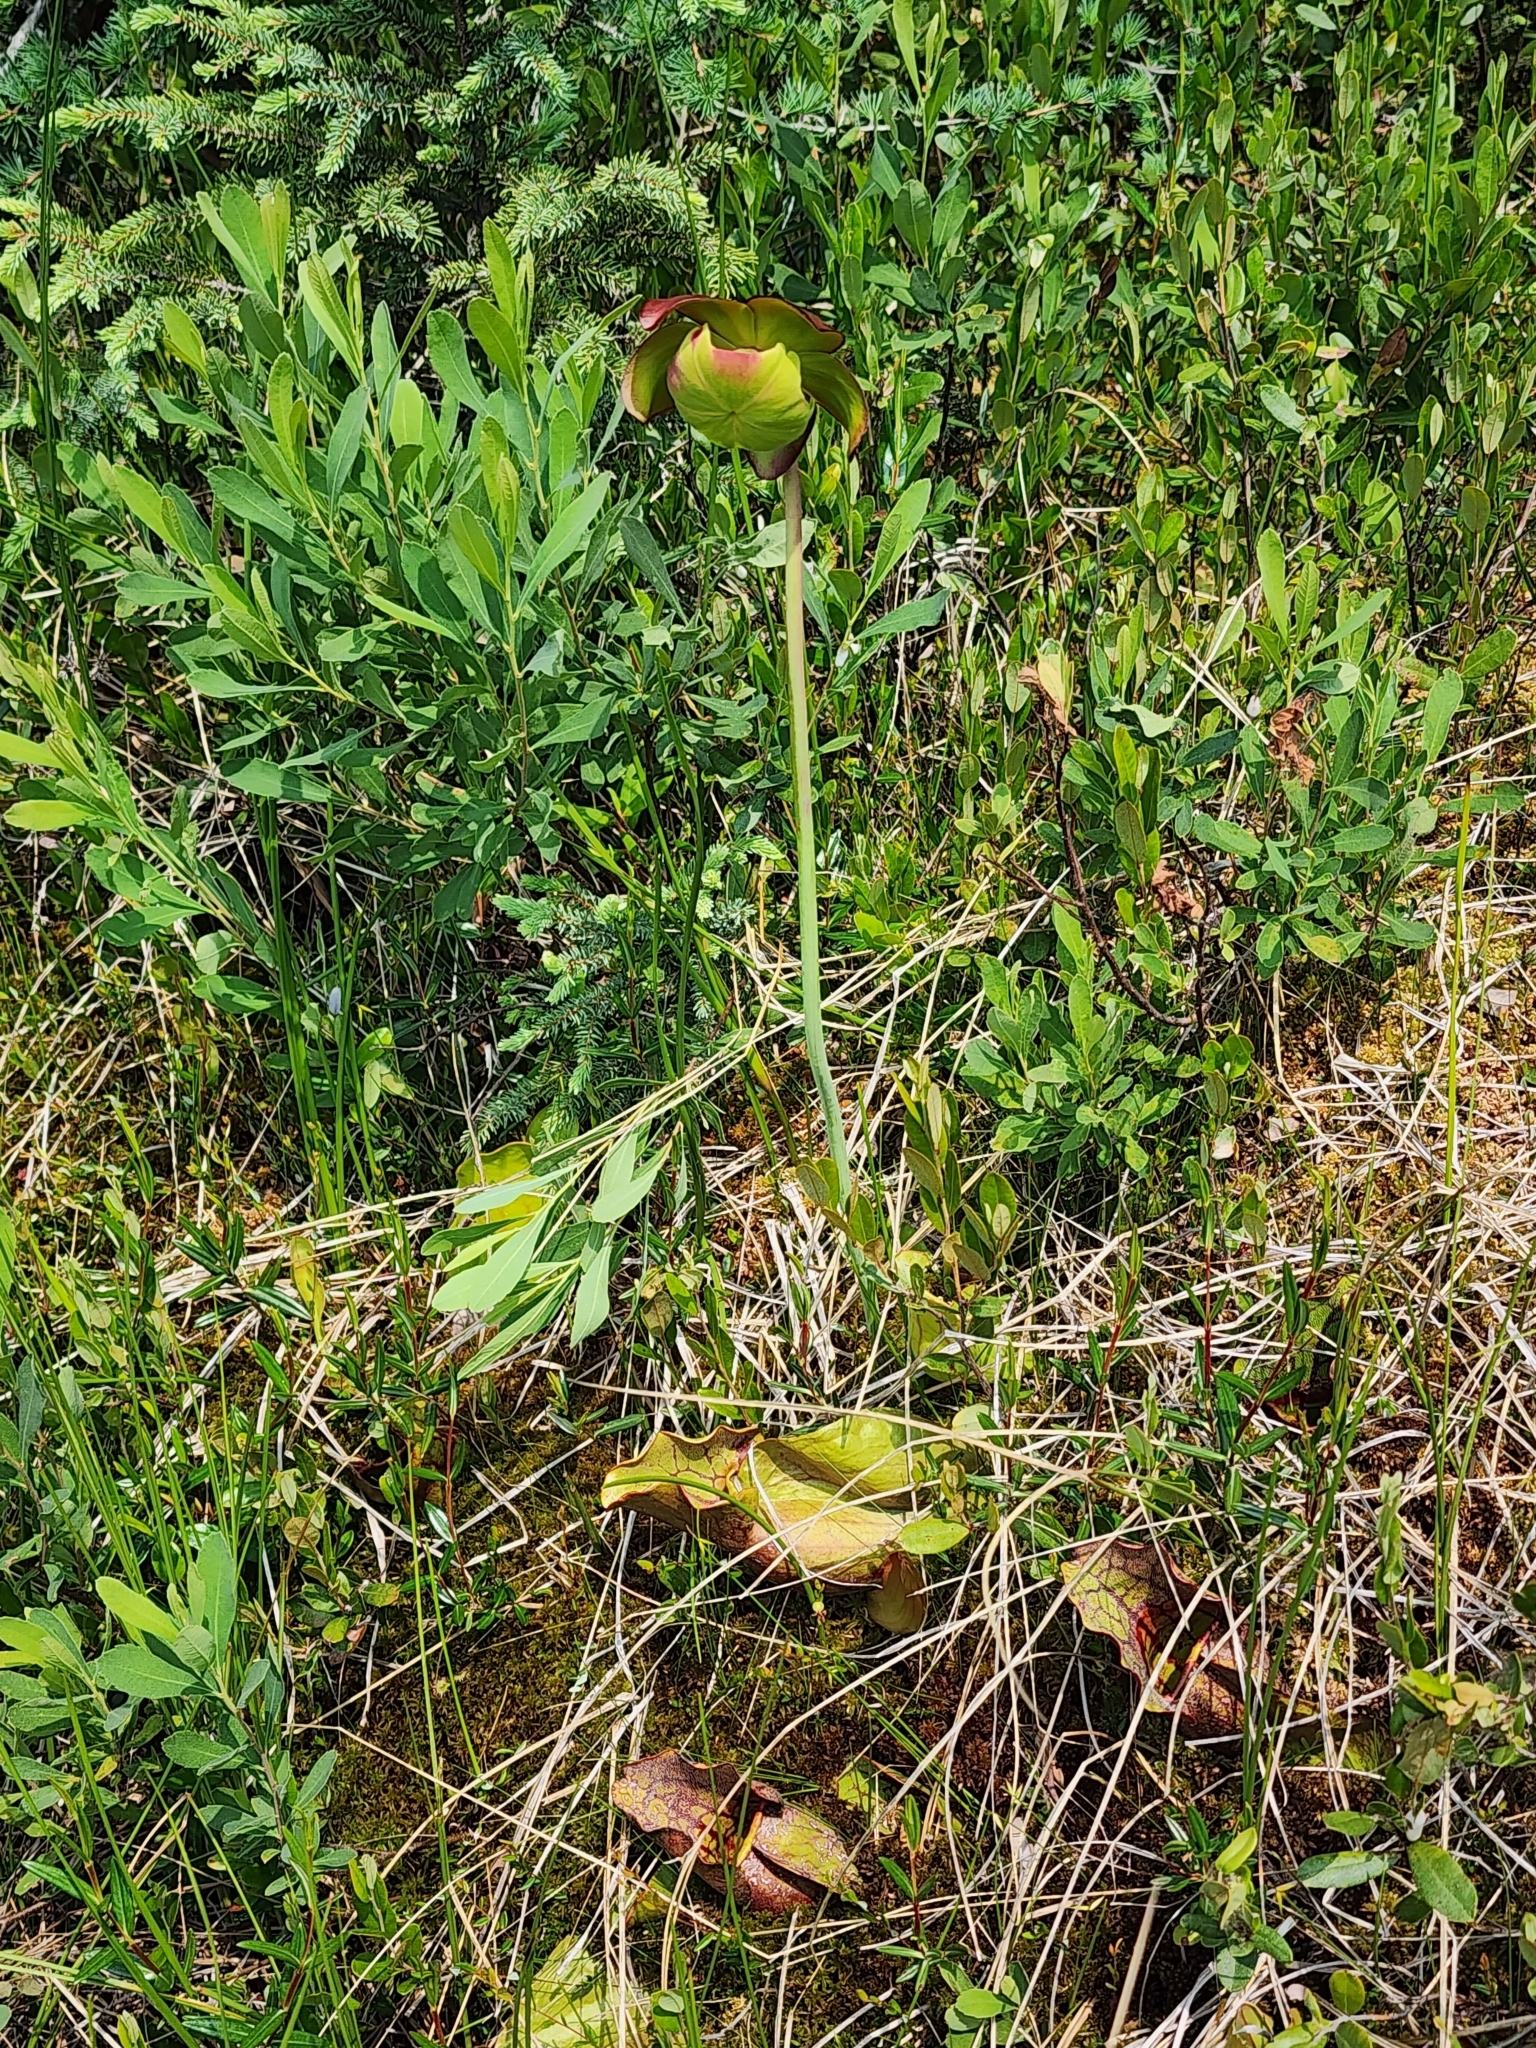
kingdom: Plantae
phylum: Tracheophyta
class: Magnoliopsida
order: Ericales
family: Sarraceniaceae
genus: Sarracenia
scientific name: Sarracenia purpurea
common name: Pitcherplant
